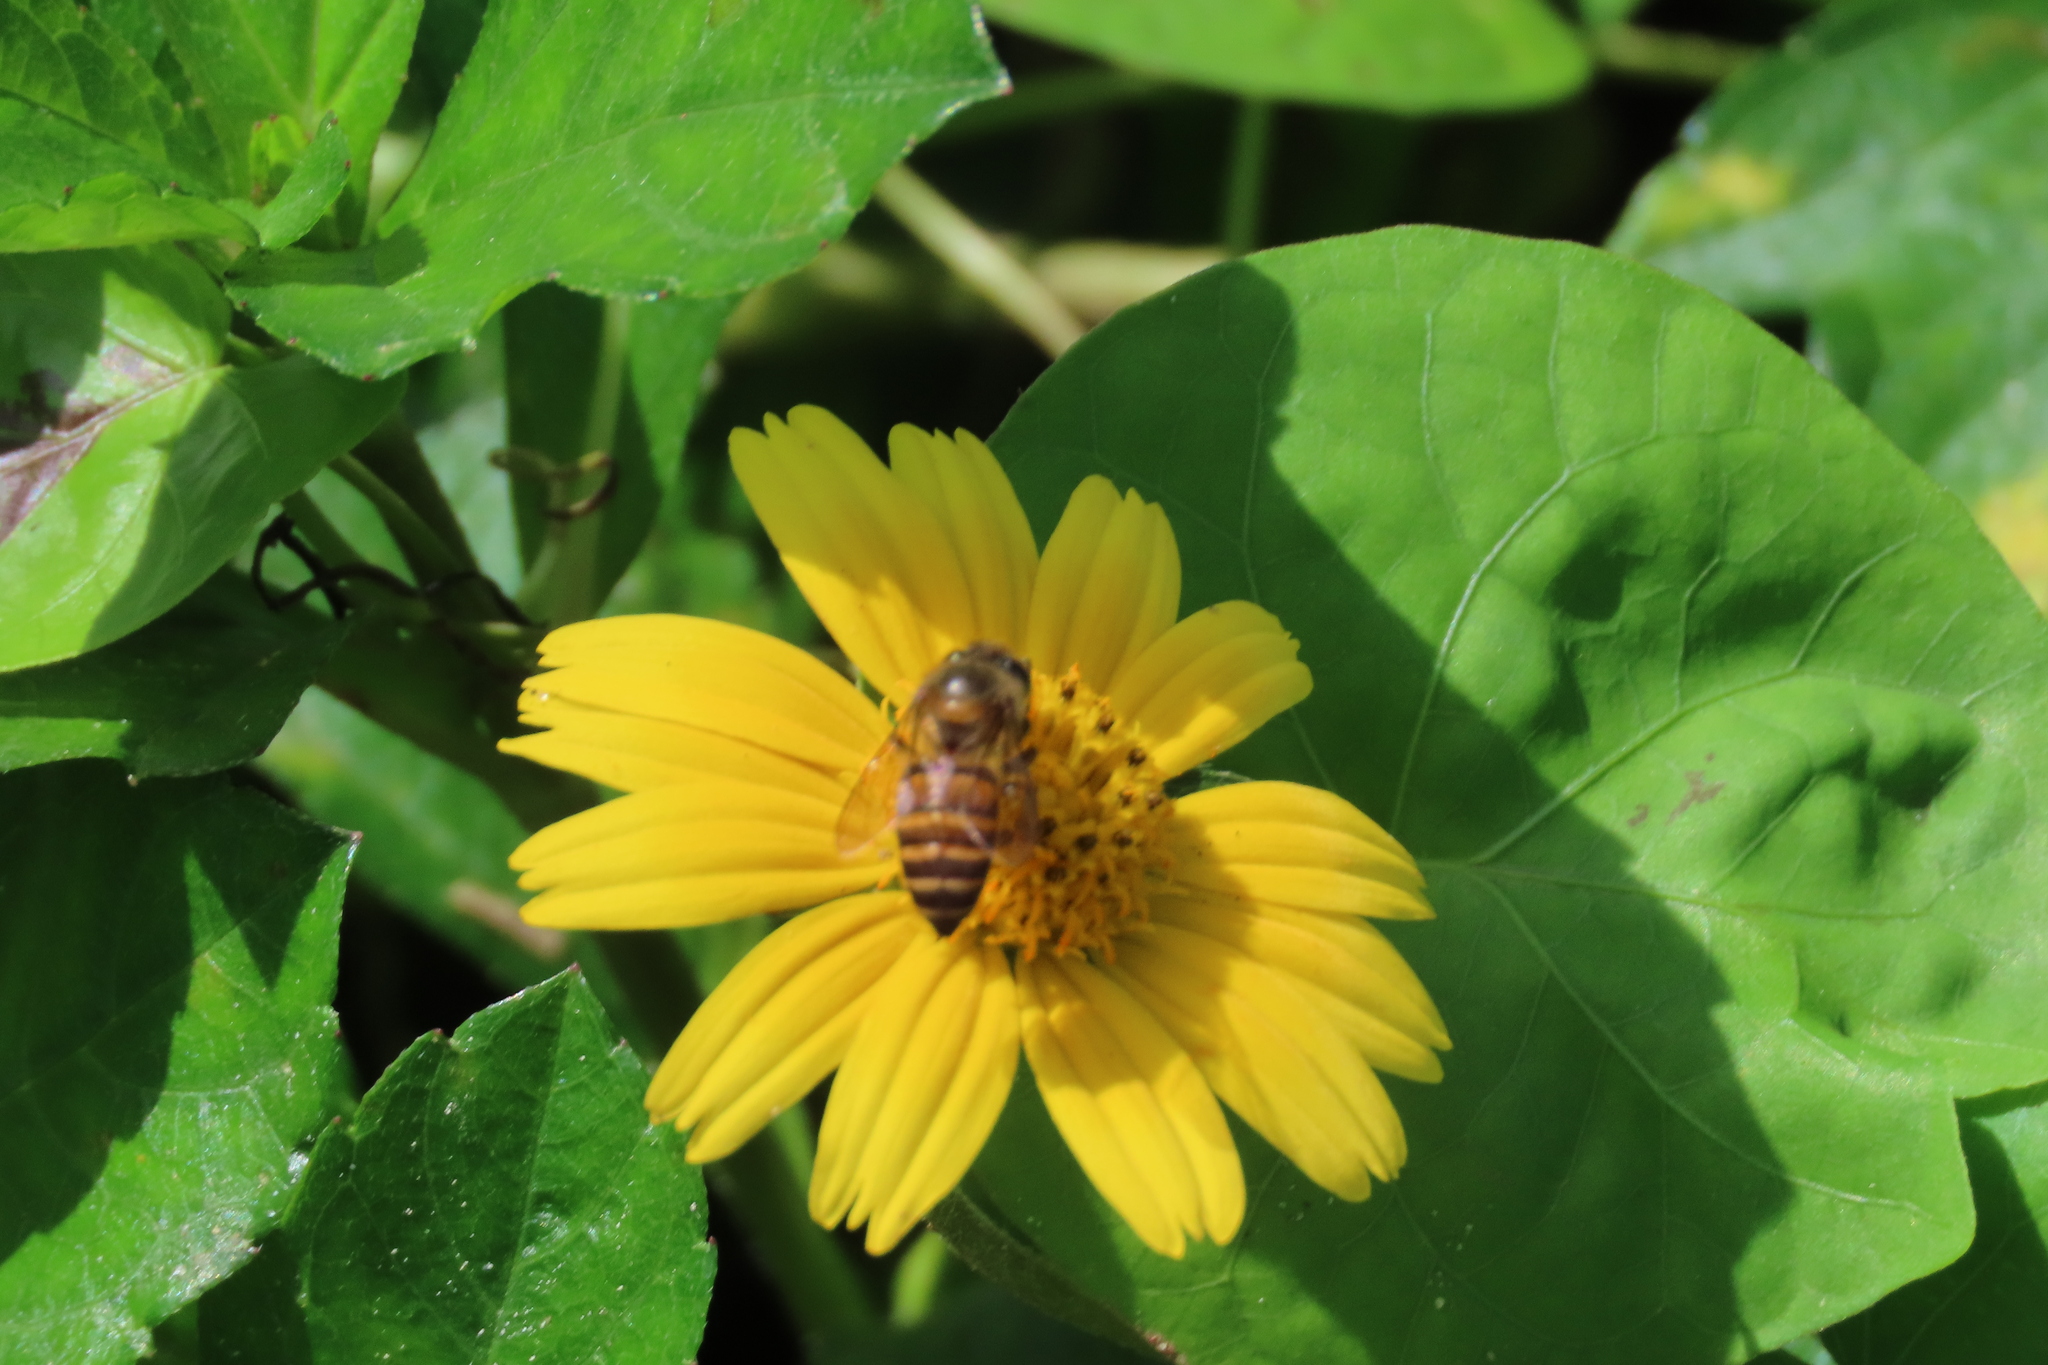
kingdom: Animalia
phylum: Arthropoda
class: Insecta
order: Hymenoptera
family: Apidae
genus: Apis
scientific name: Apis cerana
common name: Honey bee
